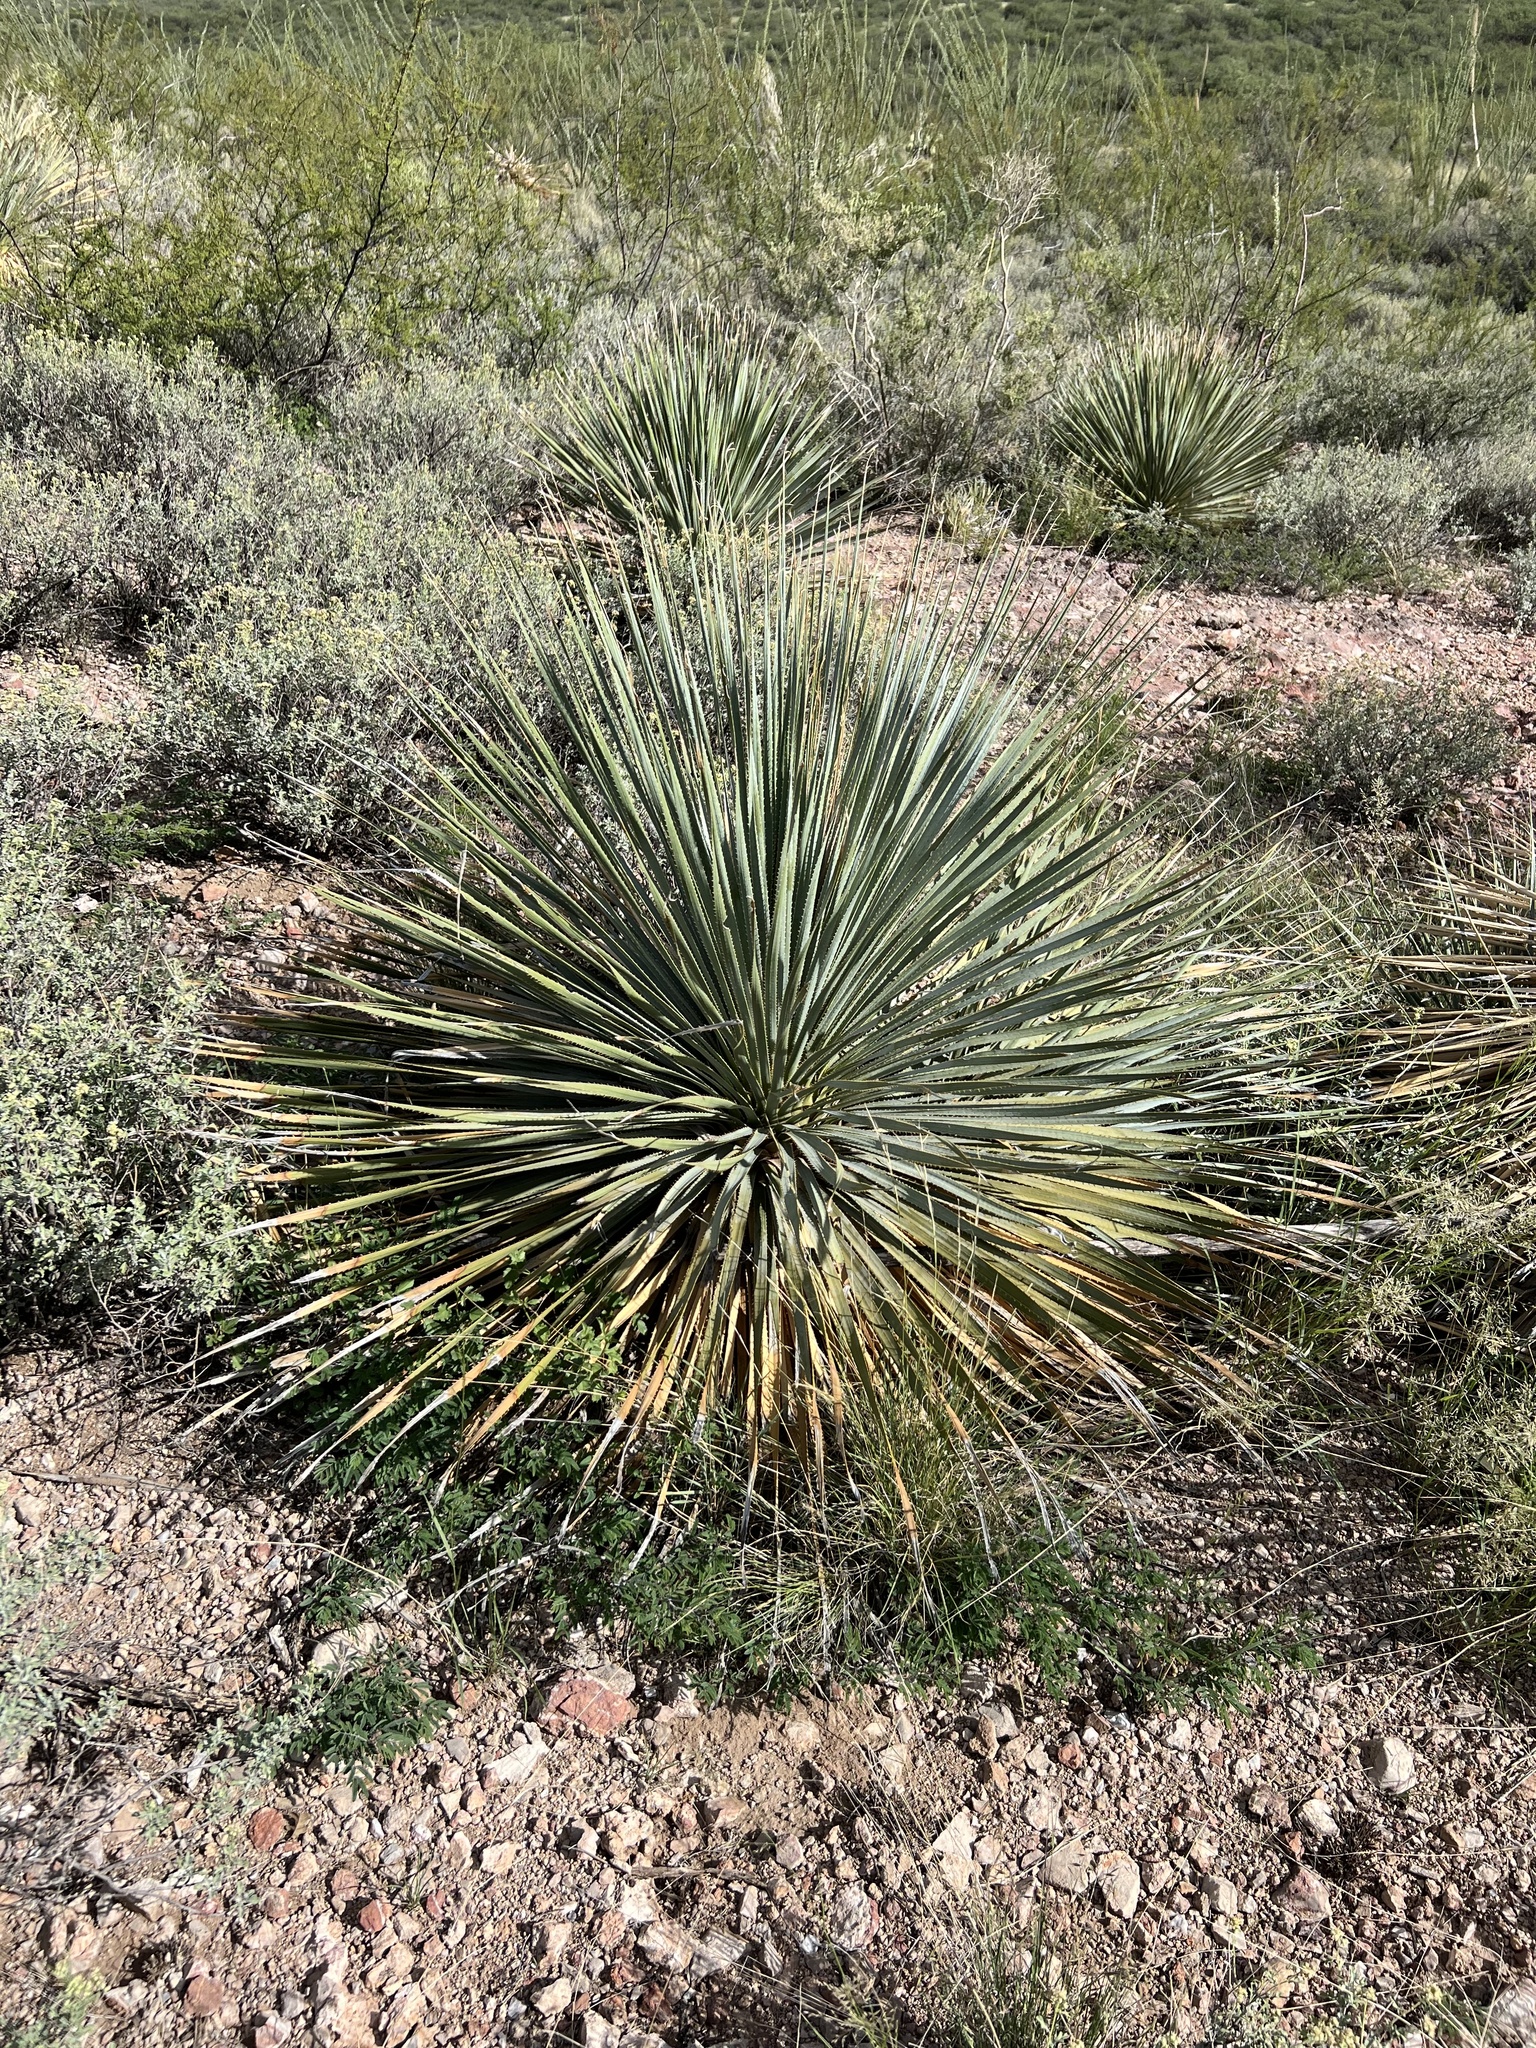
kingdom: Plantae
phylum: Tracheophyta
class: Liliopsida
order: Asparagales
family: Asparagaceae
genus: Dasylirion
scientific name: Dasylirion wheeleri
